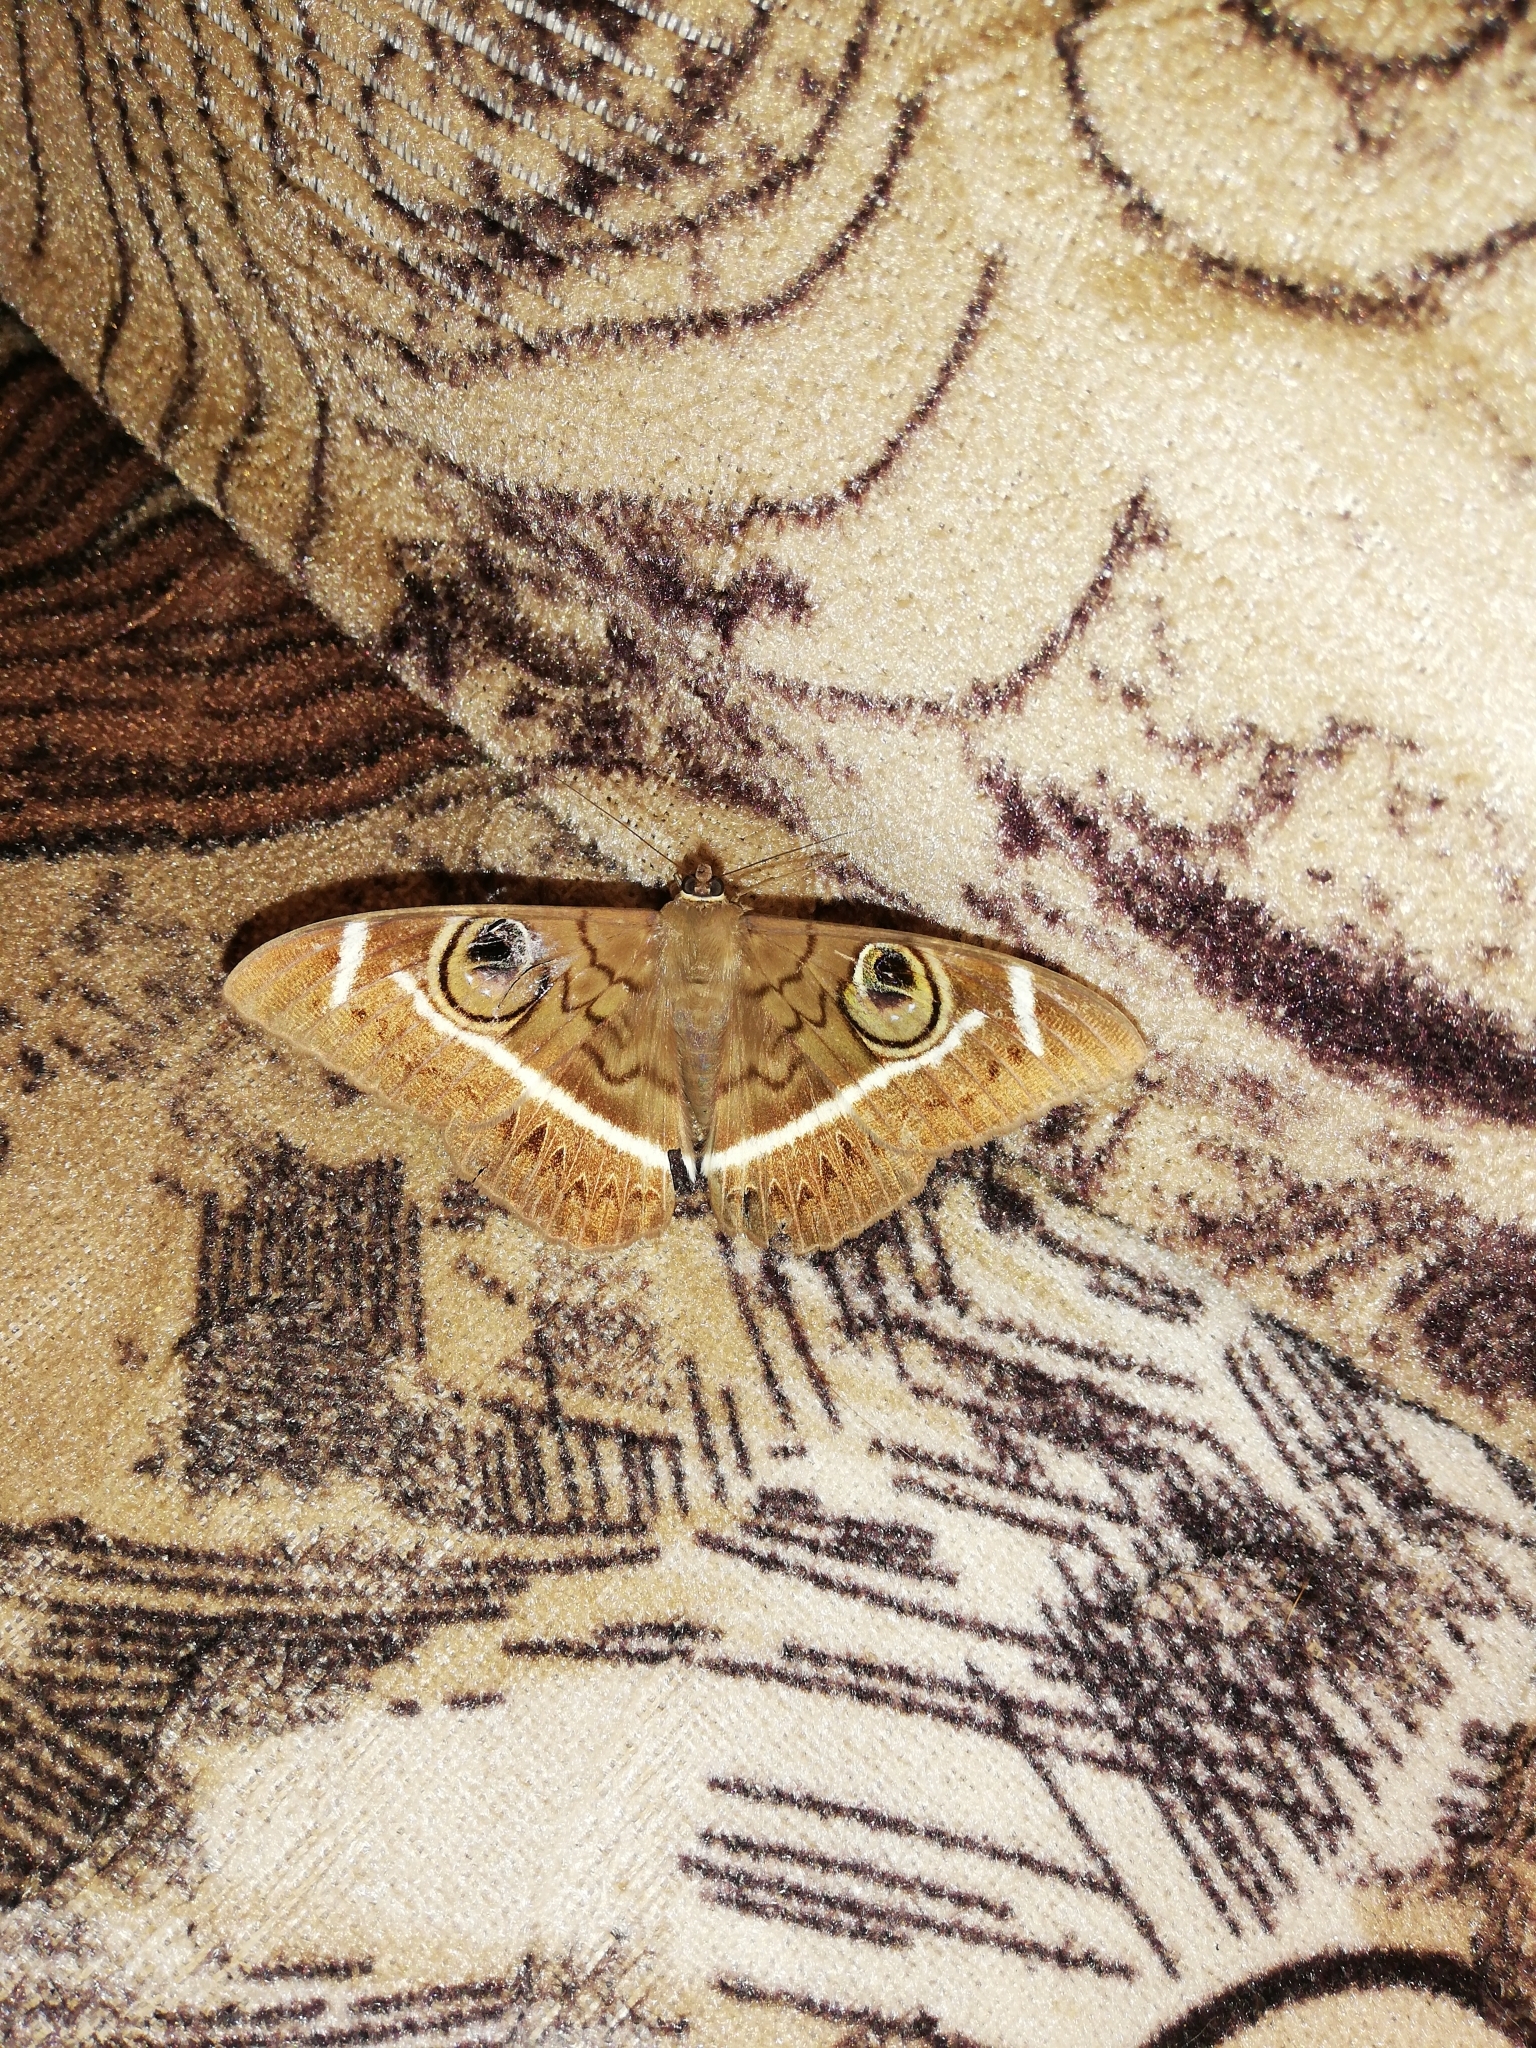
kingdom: Animalia
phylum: Arthropoda
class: Insecta
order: Lepidoptera
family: Erebidae
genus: Cyligramma
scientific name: Cyligramma latona
